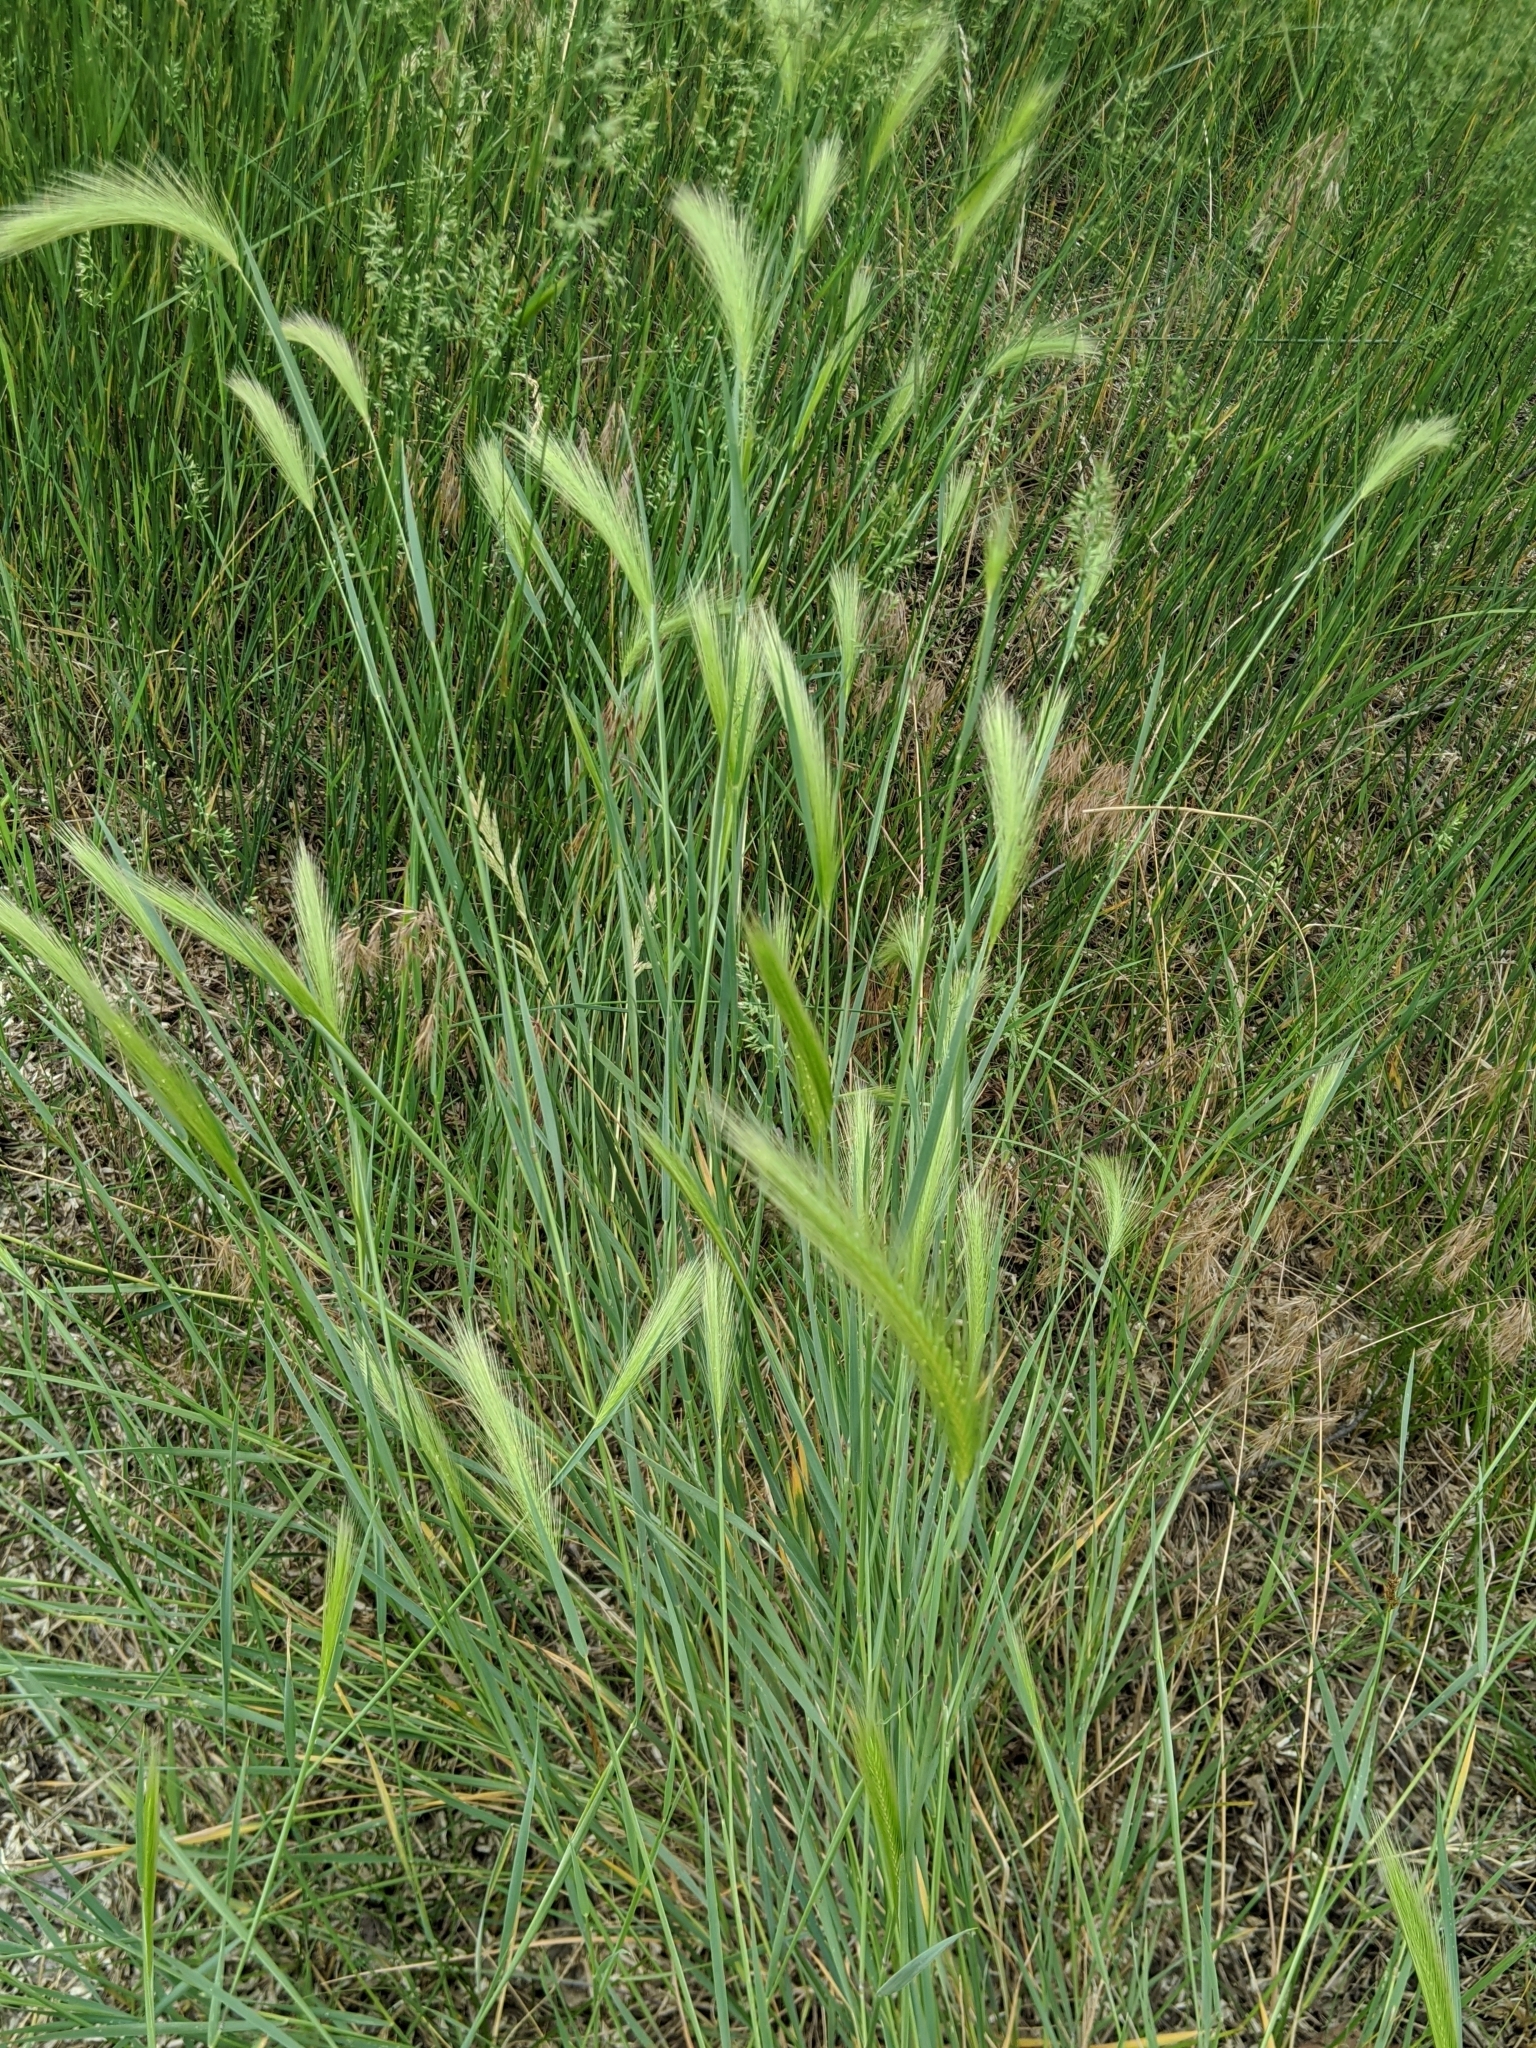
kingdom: Plantae
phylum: Tracheophyta
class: Liliopsida
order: Poales
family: Poaceae
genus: Hordeum
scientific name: Hordeum jubatum
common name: Foxtail barley
